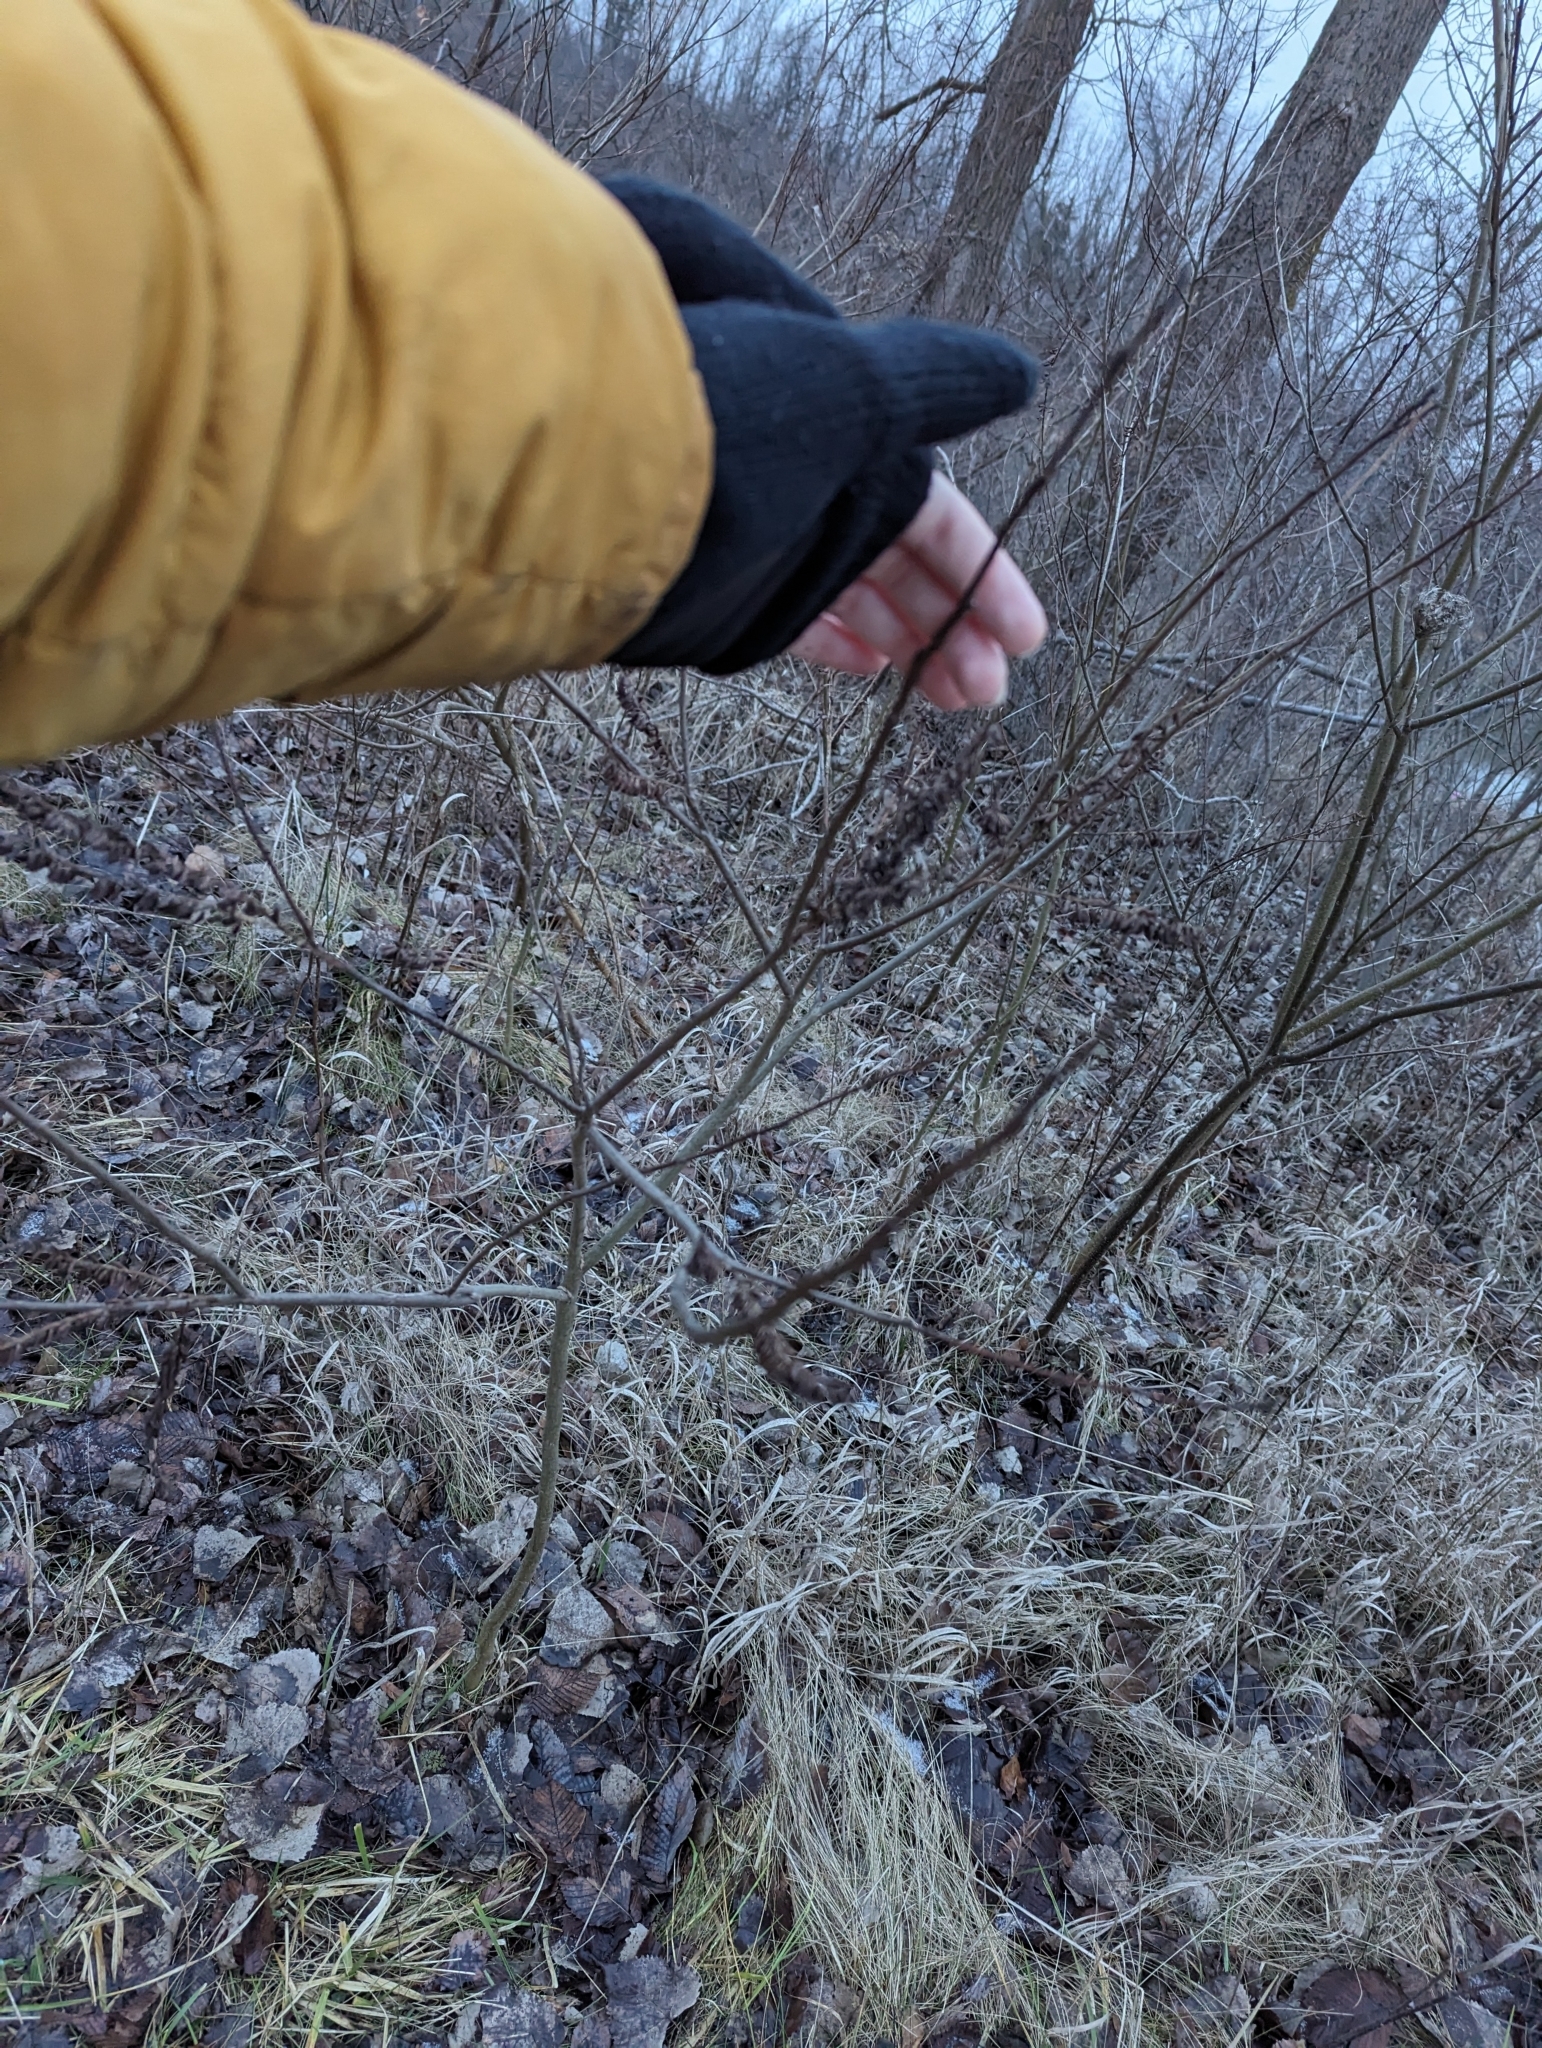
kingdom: Plantae
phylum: Tracheophyta
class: Magnoliopsida
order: Fabales
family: Fabaceae
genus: Amorpha
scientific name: Amorpha fruticosa
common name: False indigo
